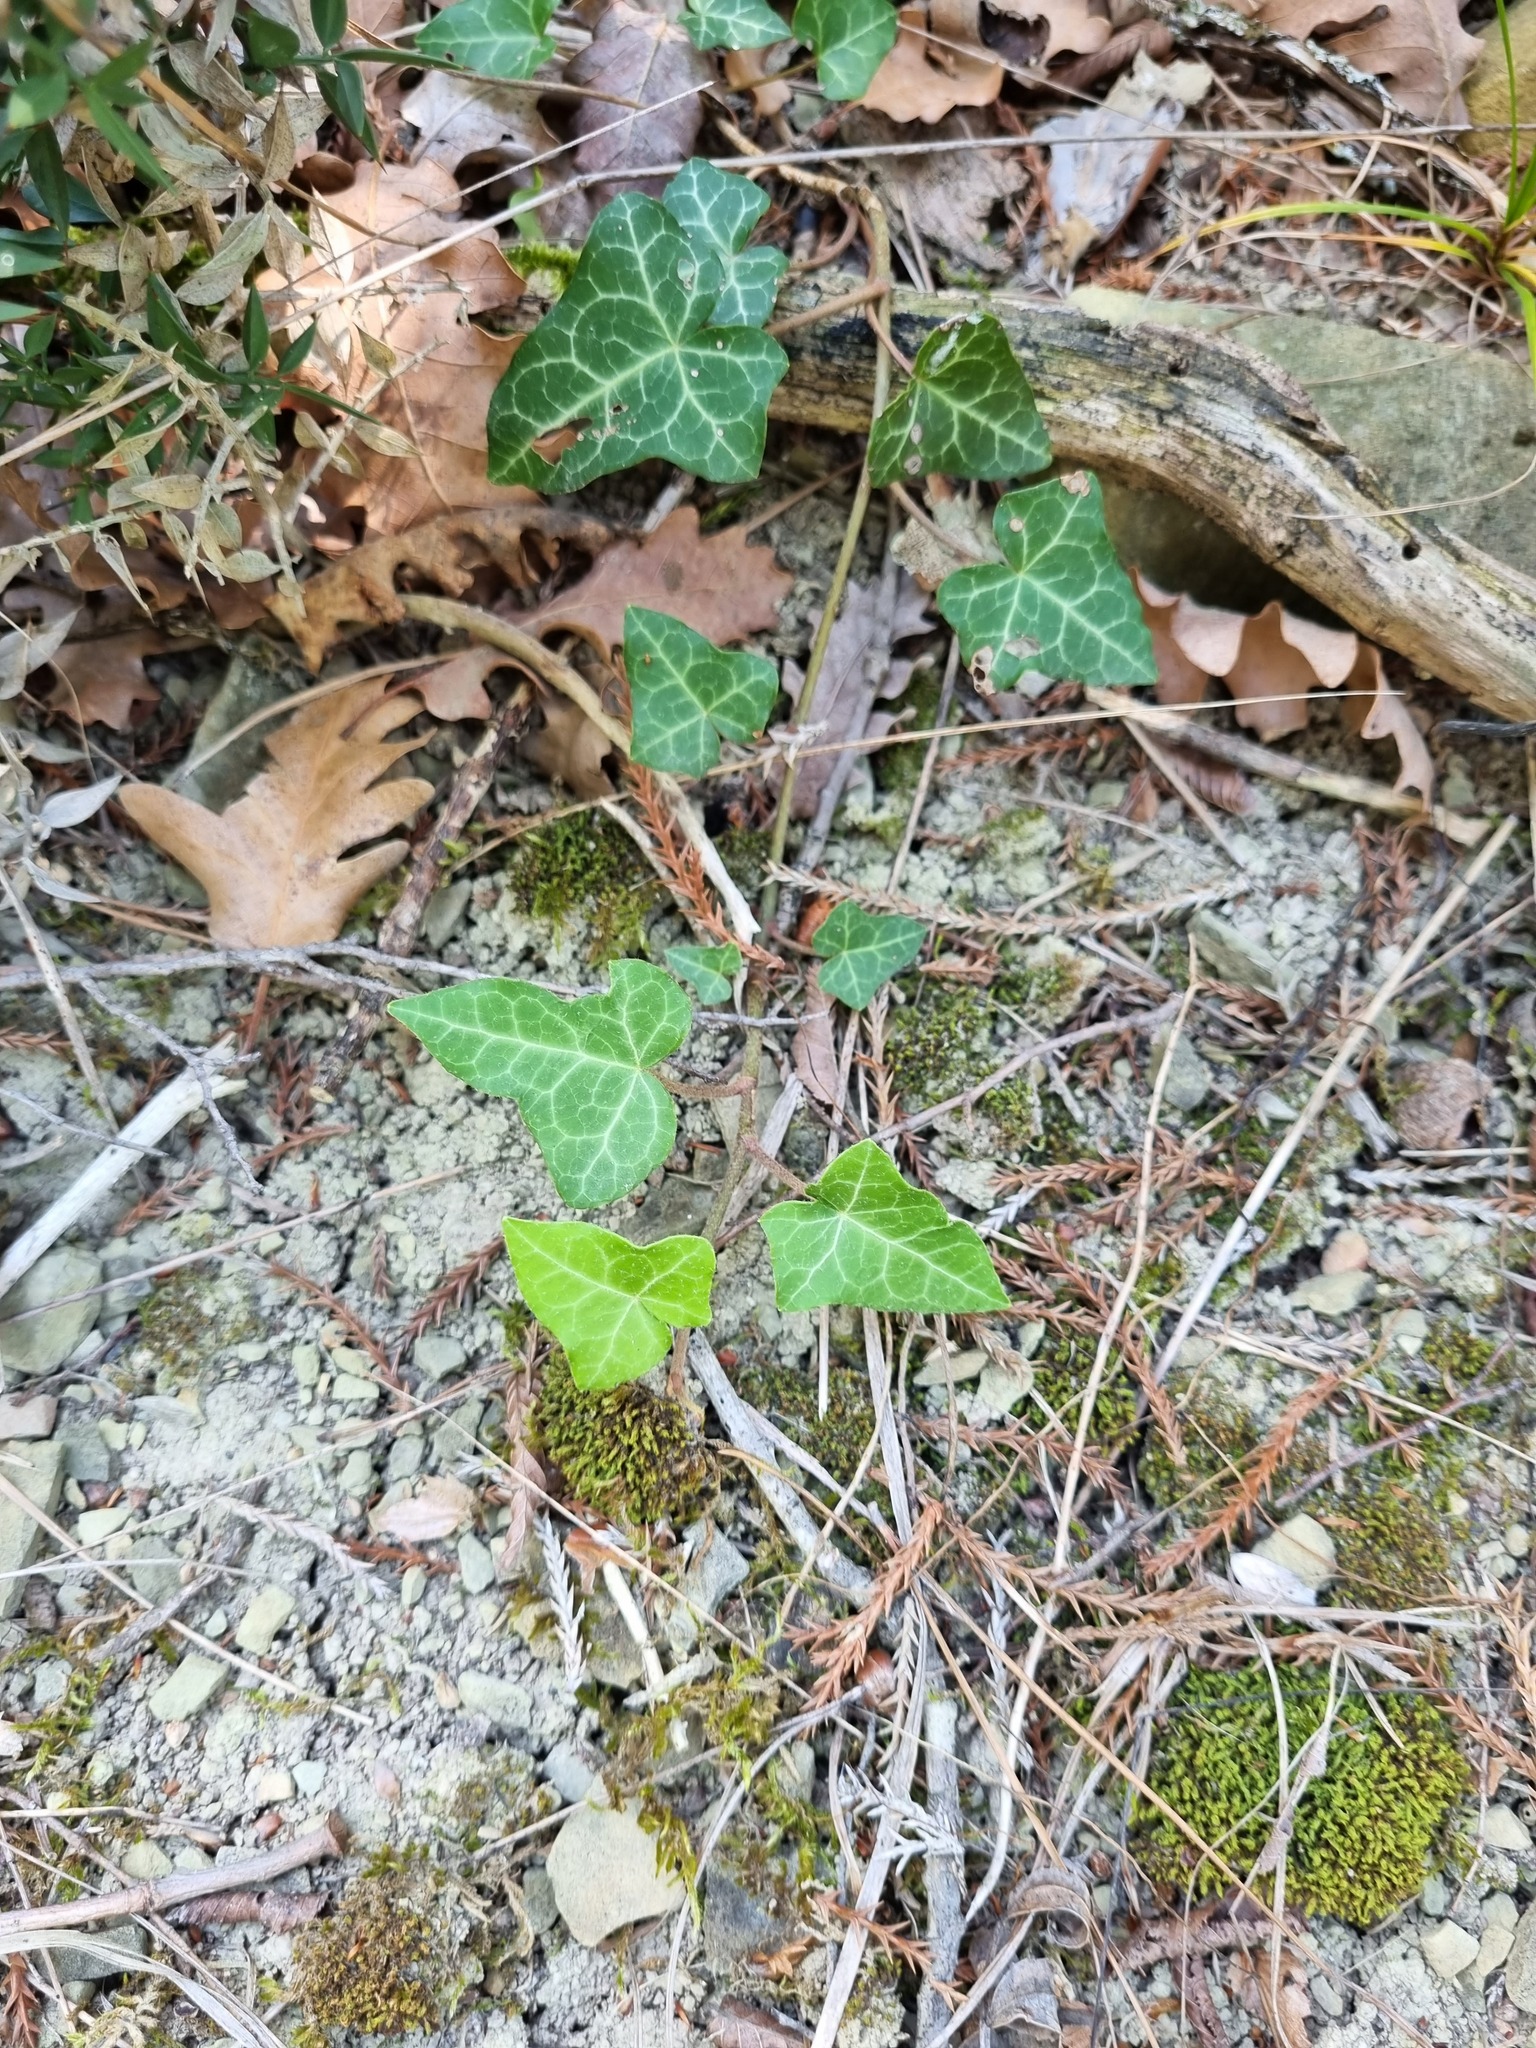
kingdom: Plantae
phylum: Tracheophyta
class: Magnoliopsida
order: Apiales
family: Araliaceae
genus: Hedera
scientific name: Hedera helix
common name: Ivy
